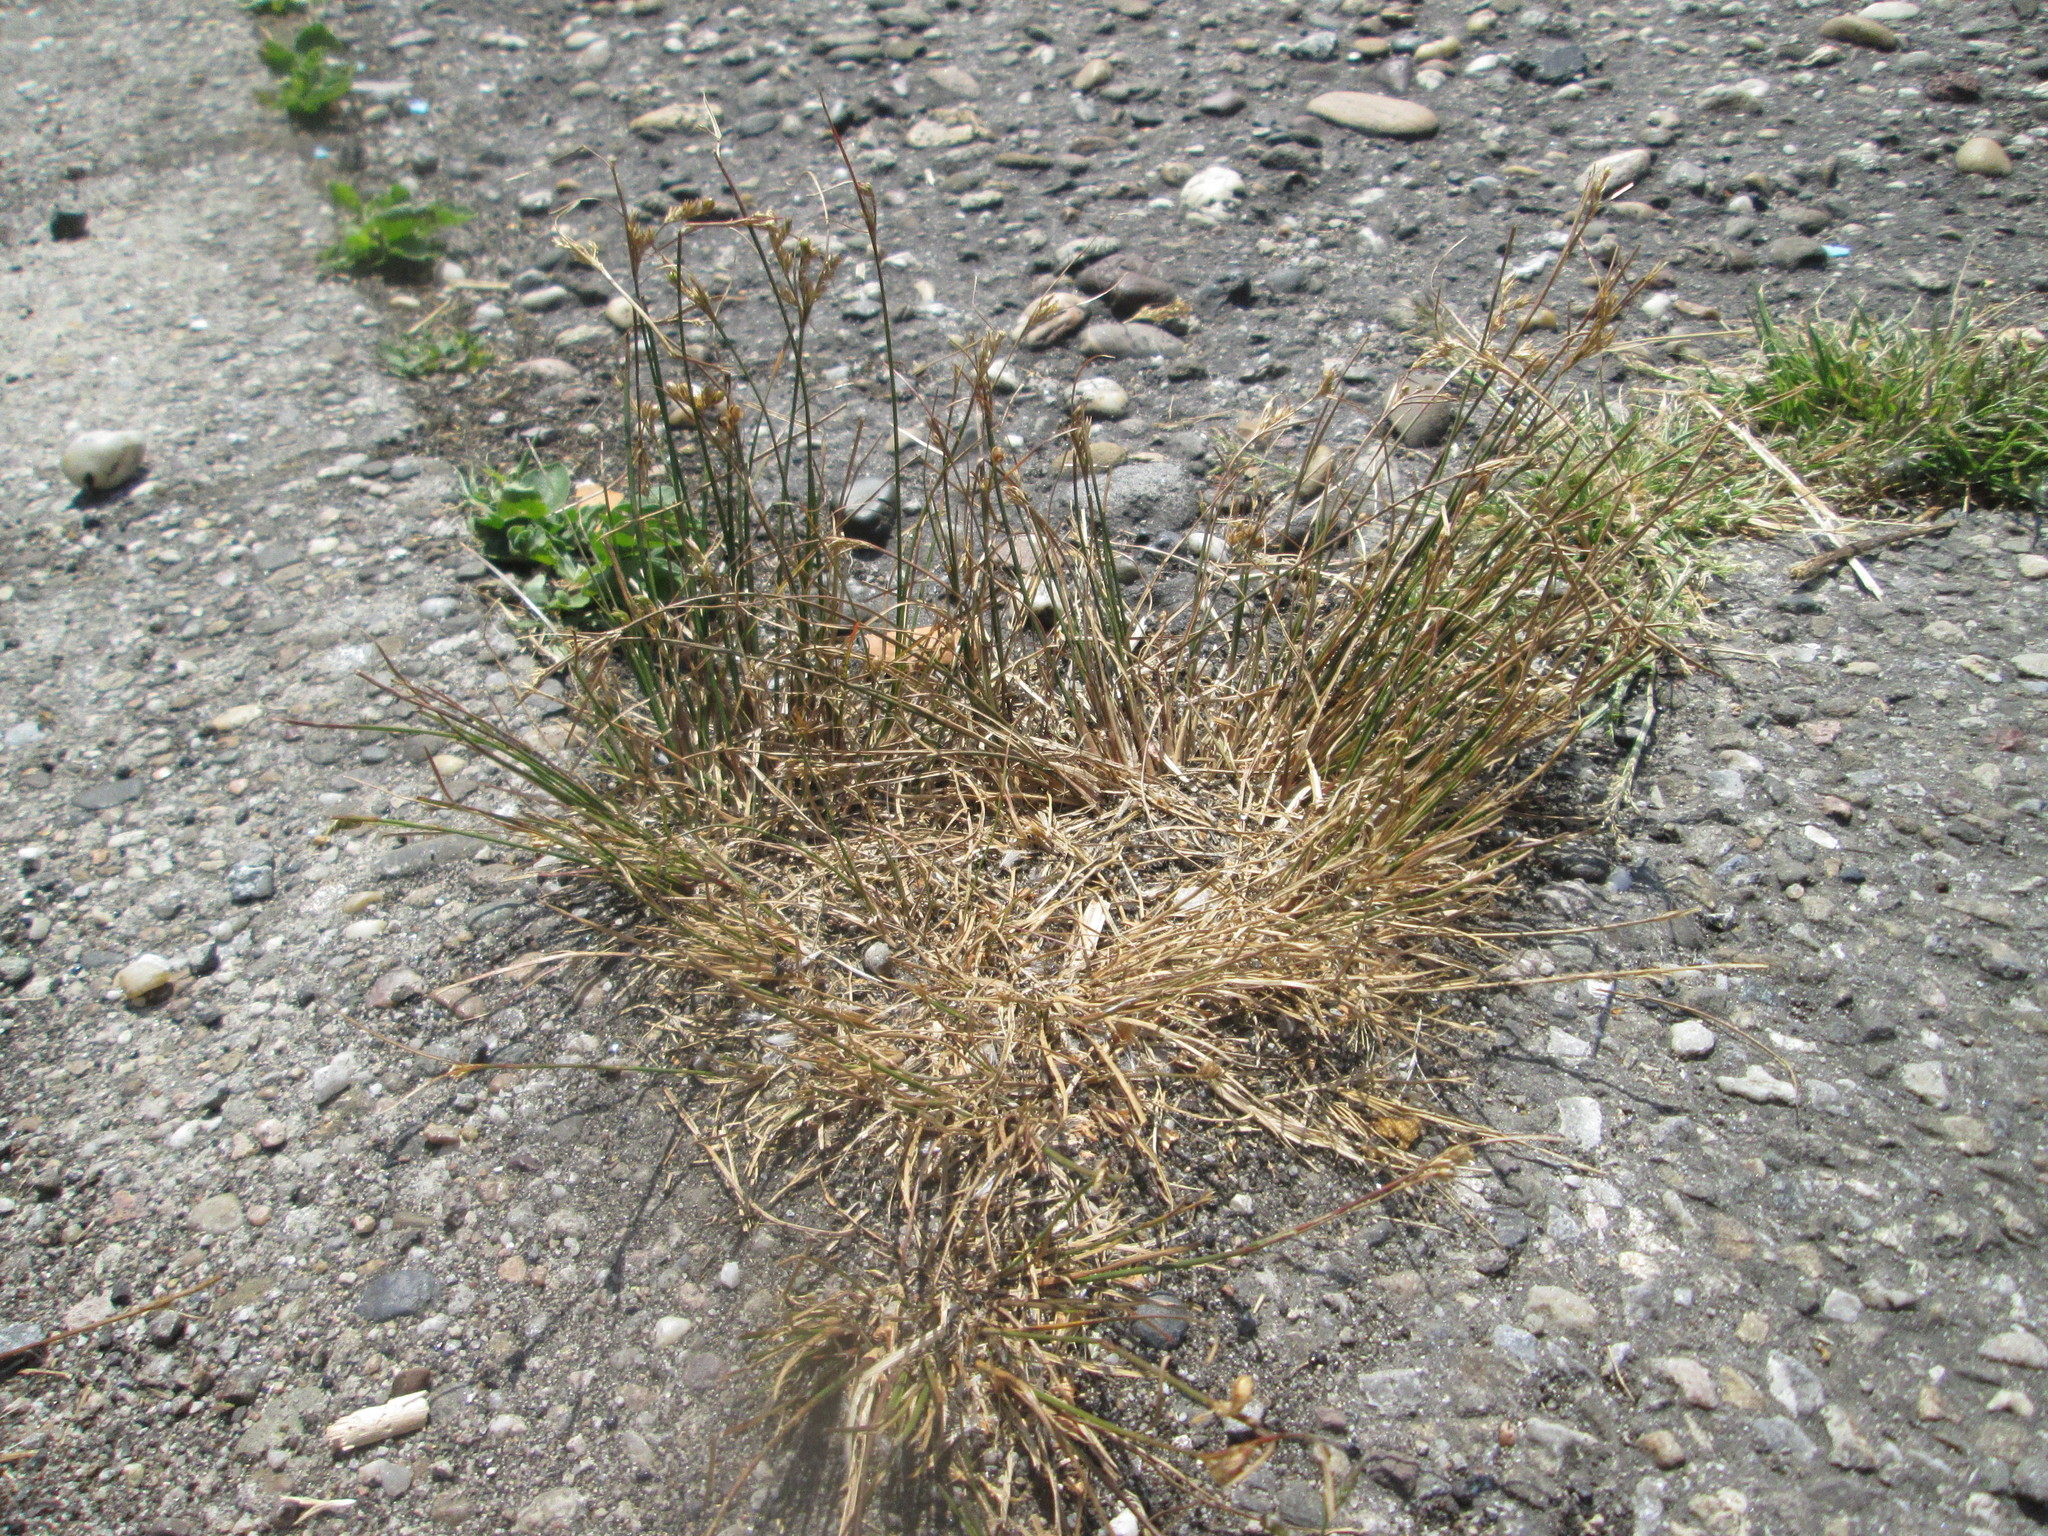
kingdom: Plantae
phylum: Tracheophyta
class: Liliopsida
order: Poales
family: Juncaceae
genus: Juncus
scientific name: Juncus tenuis
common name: Slender rush
